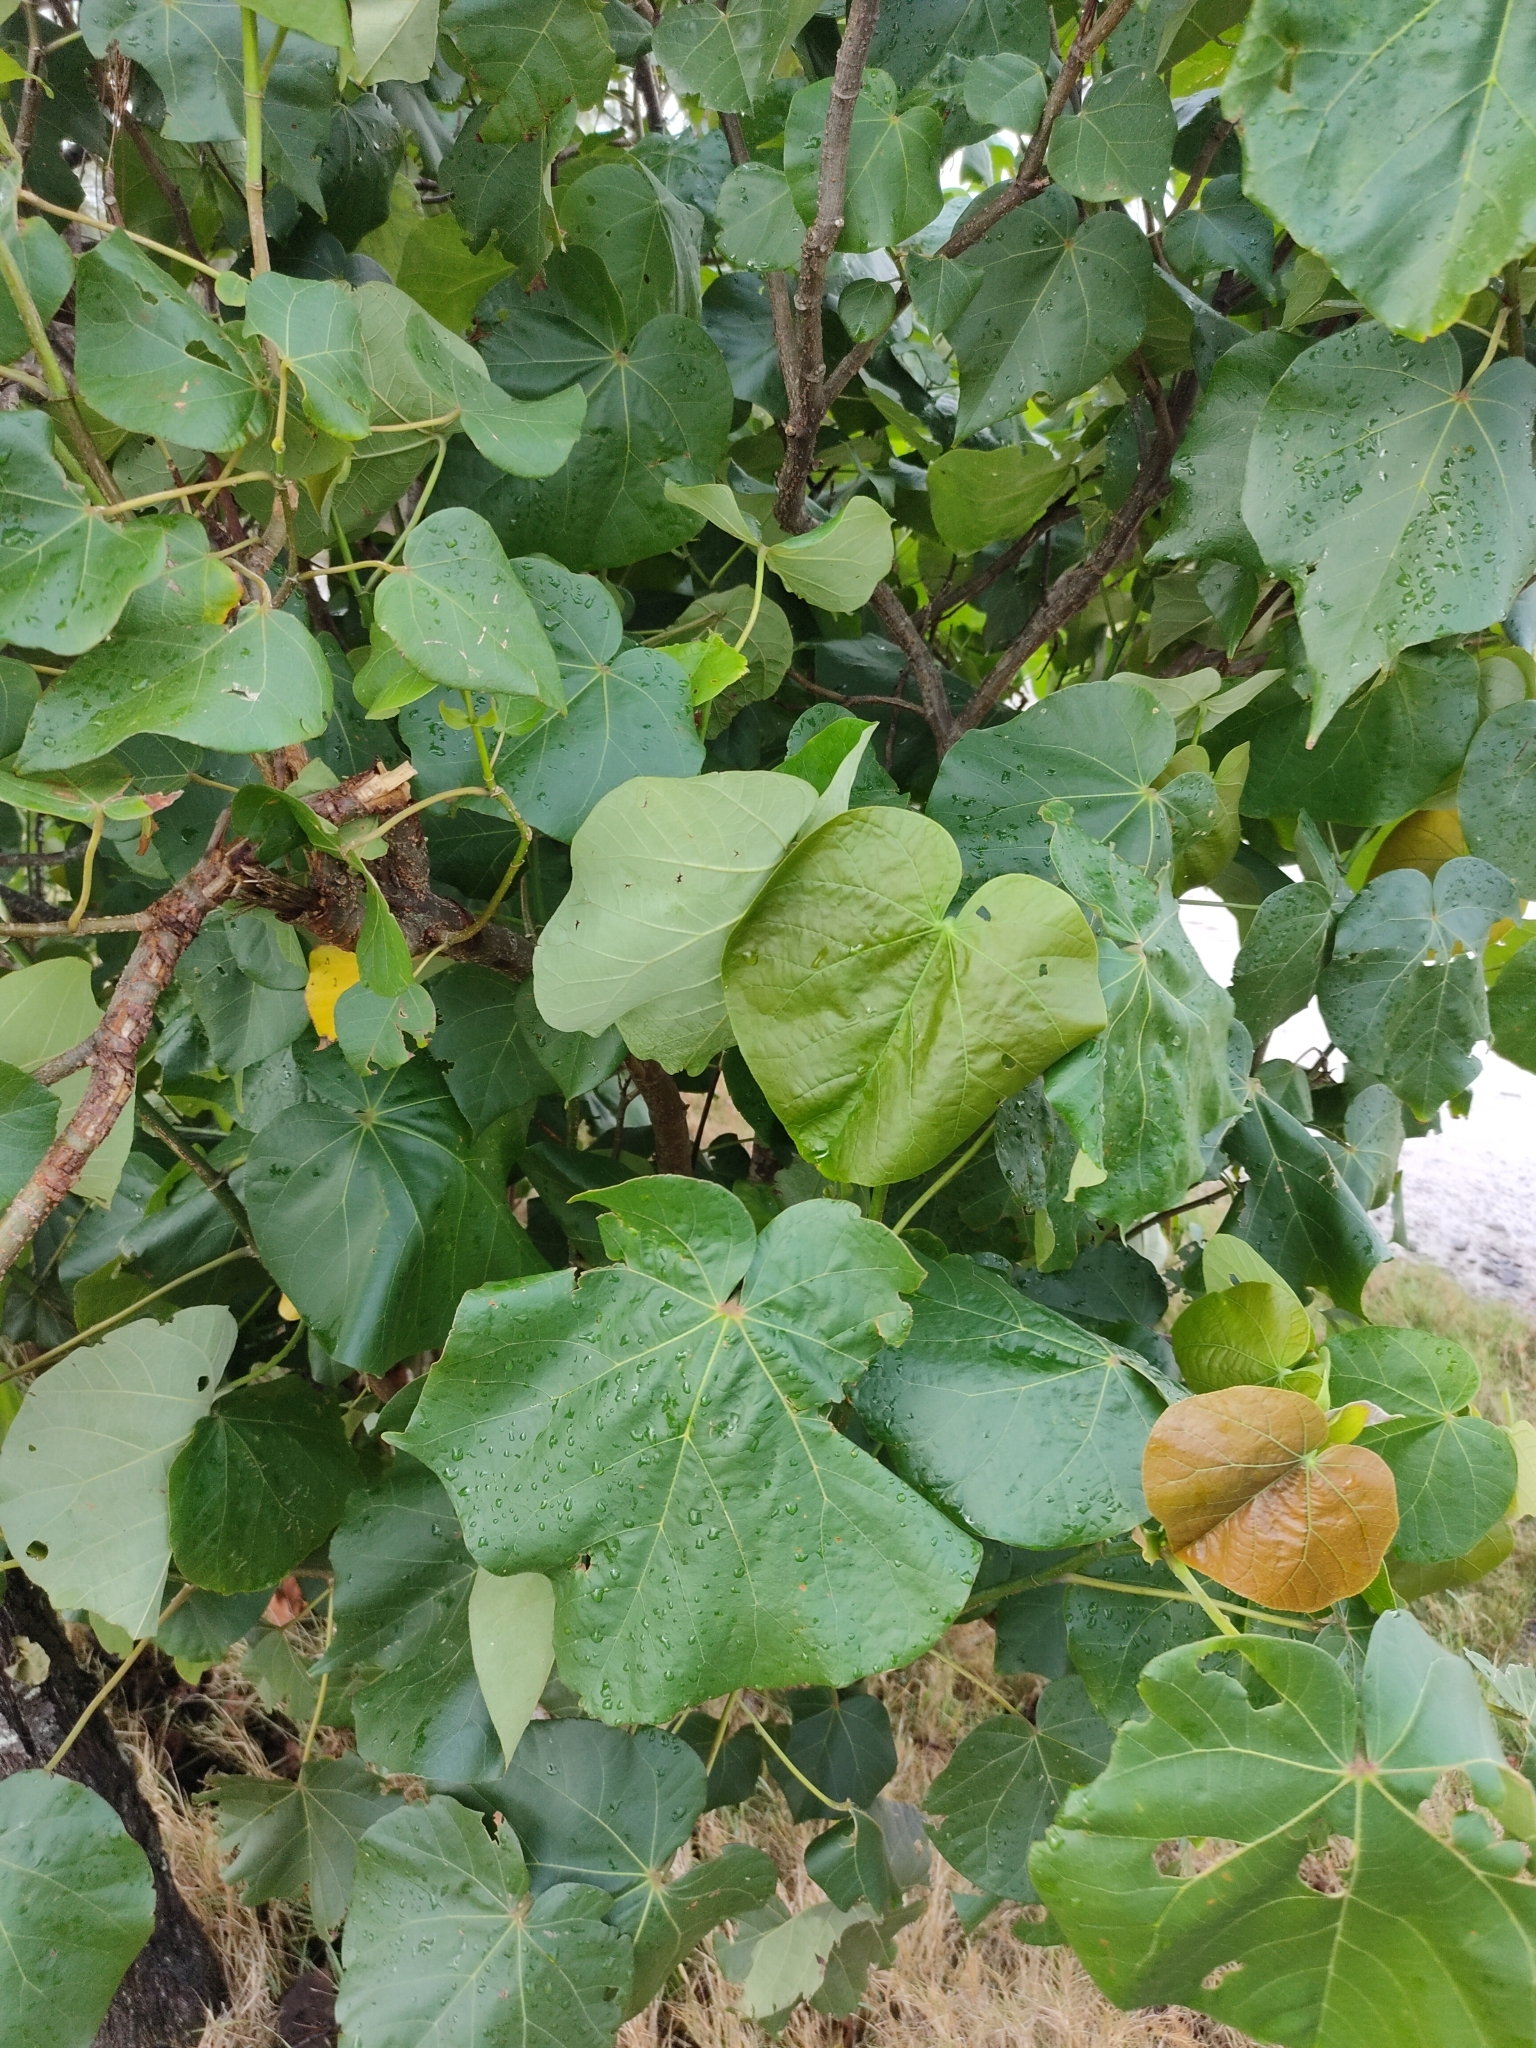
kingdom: Plantae
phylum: Tracheophyta
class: Magnoliopsida
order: Malvales
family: Malvaceae
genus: Talipariti
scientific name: Talipariti tiliaceum
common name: Sea hibiscus
